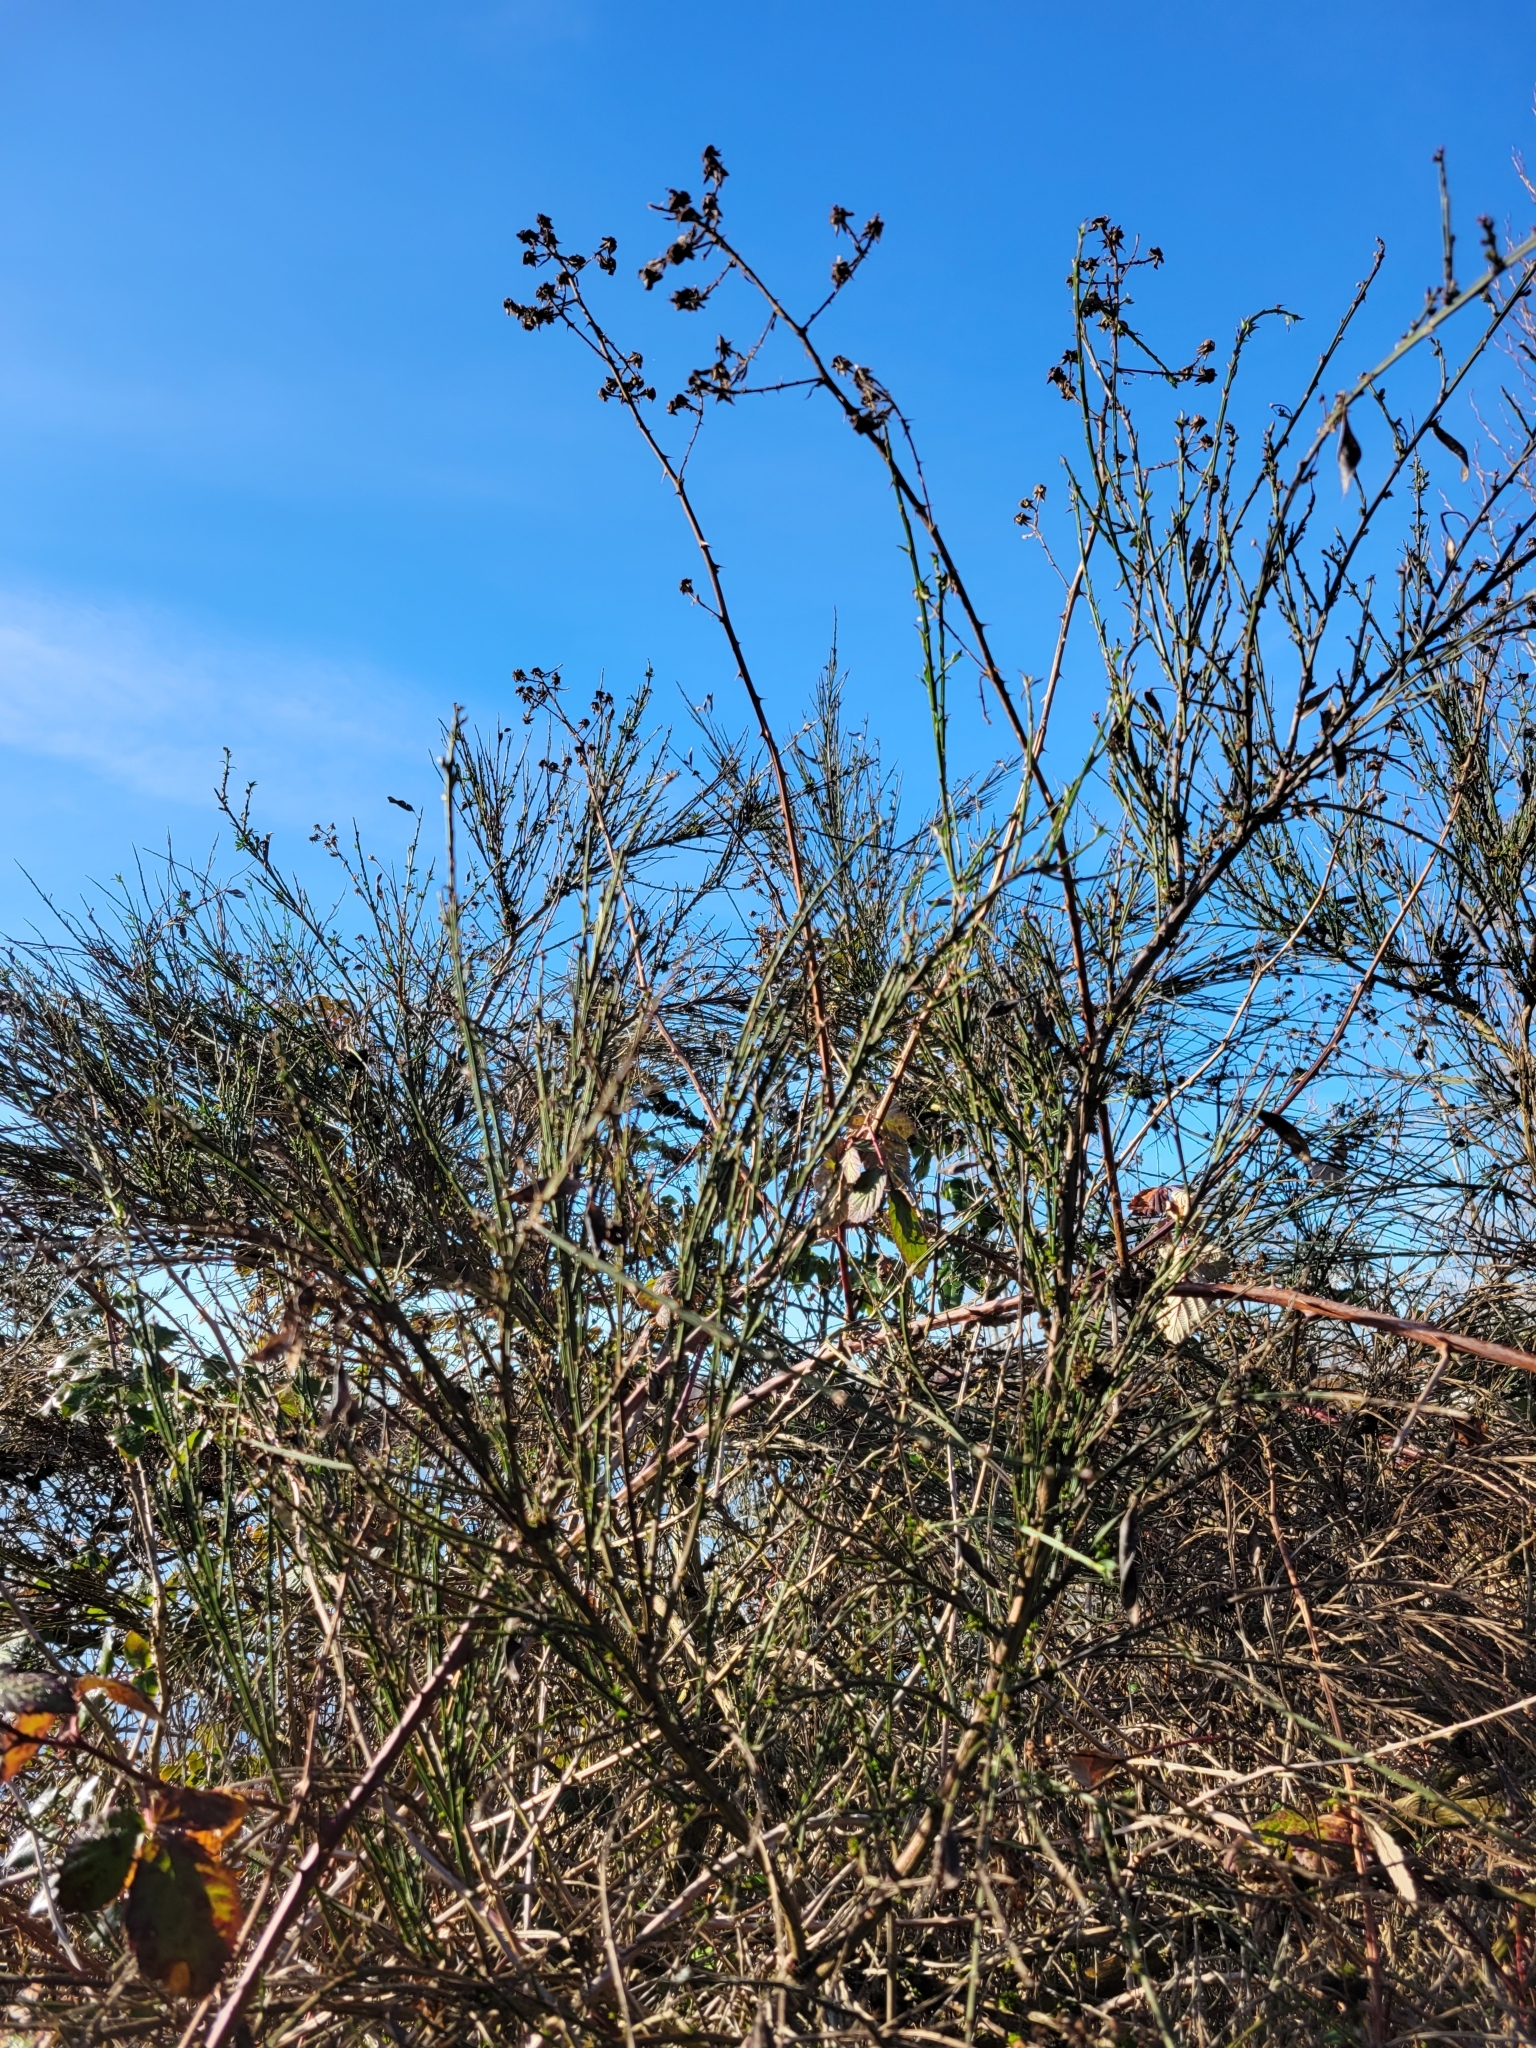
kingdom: Plantae
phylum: Tracheophyta
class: Magnoliopsida
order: Fabales
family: Fabaceae
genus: Cytisus
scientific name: Cytisus scoparius
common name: Scotch broom
